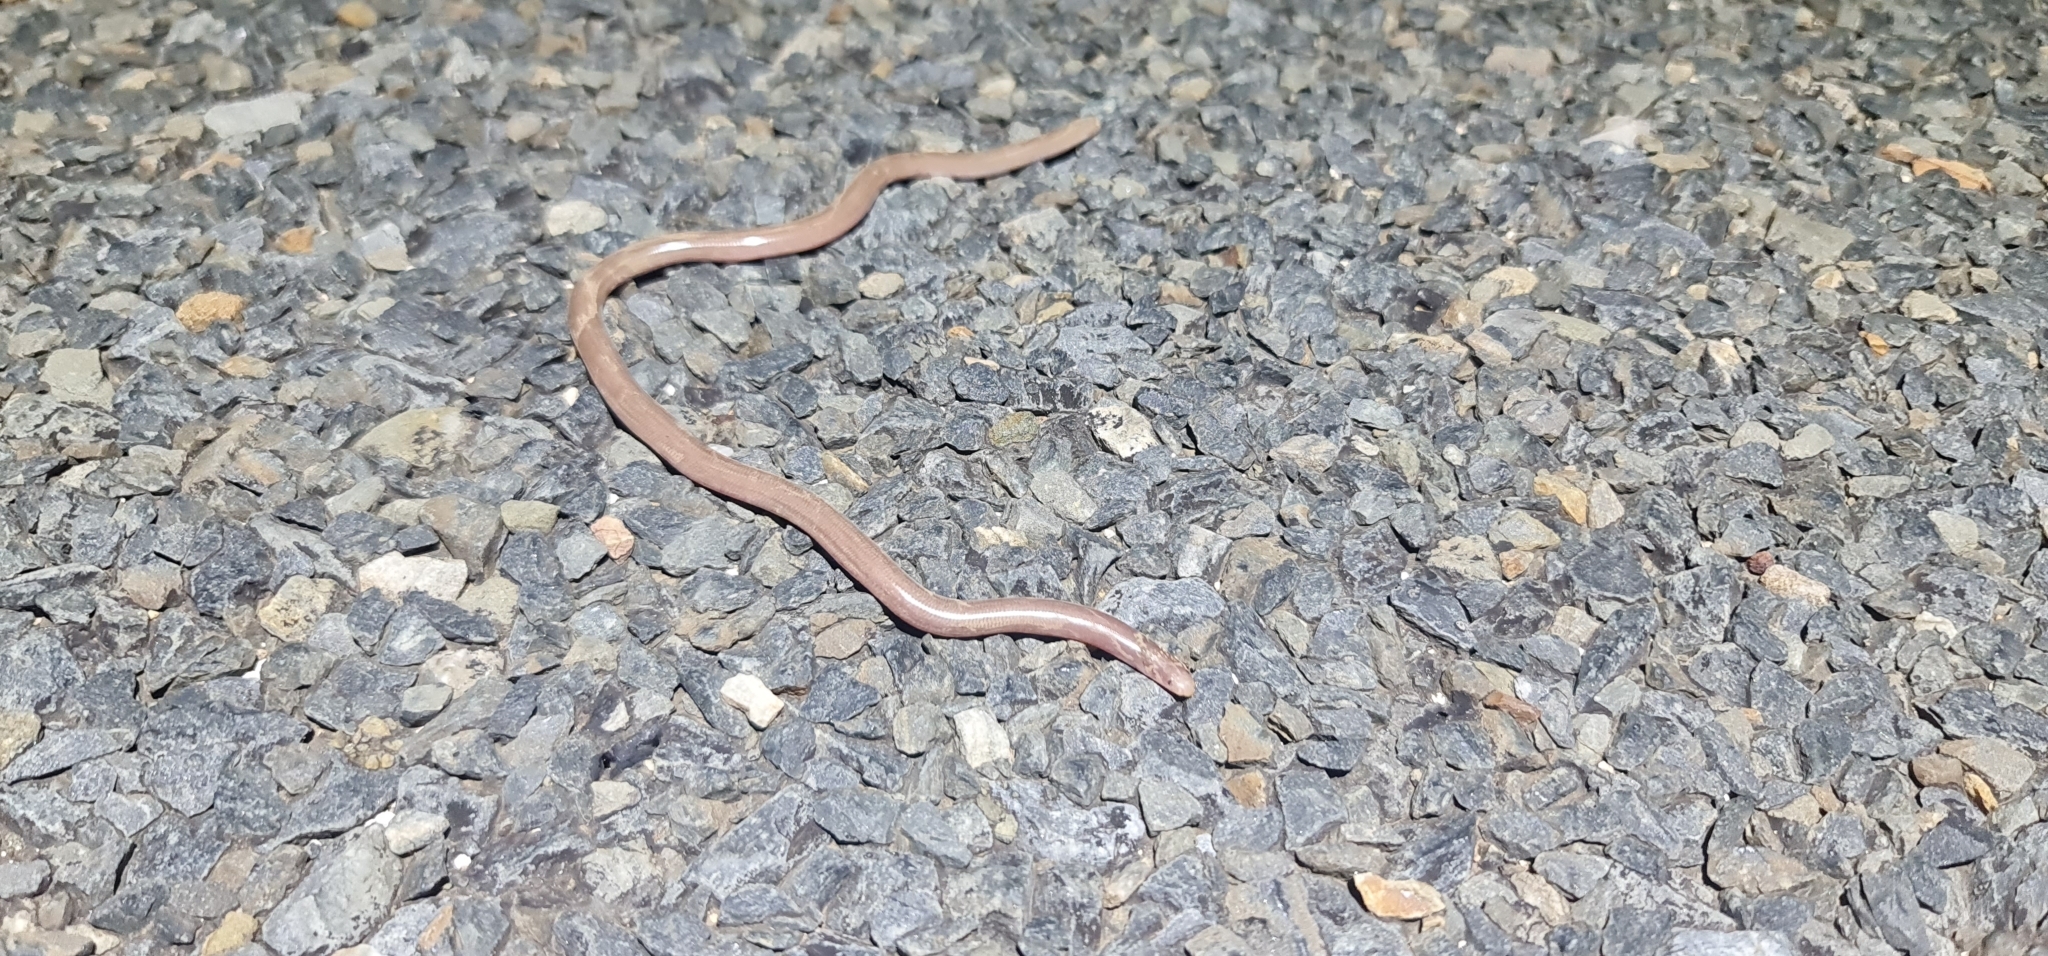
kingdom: Animalia
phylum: Chordata
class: Squamata
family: Typhlopidae
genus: Anilios
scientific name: Anilios bituberculatus
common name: Prong-snouted blind snake
